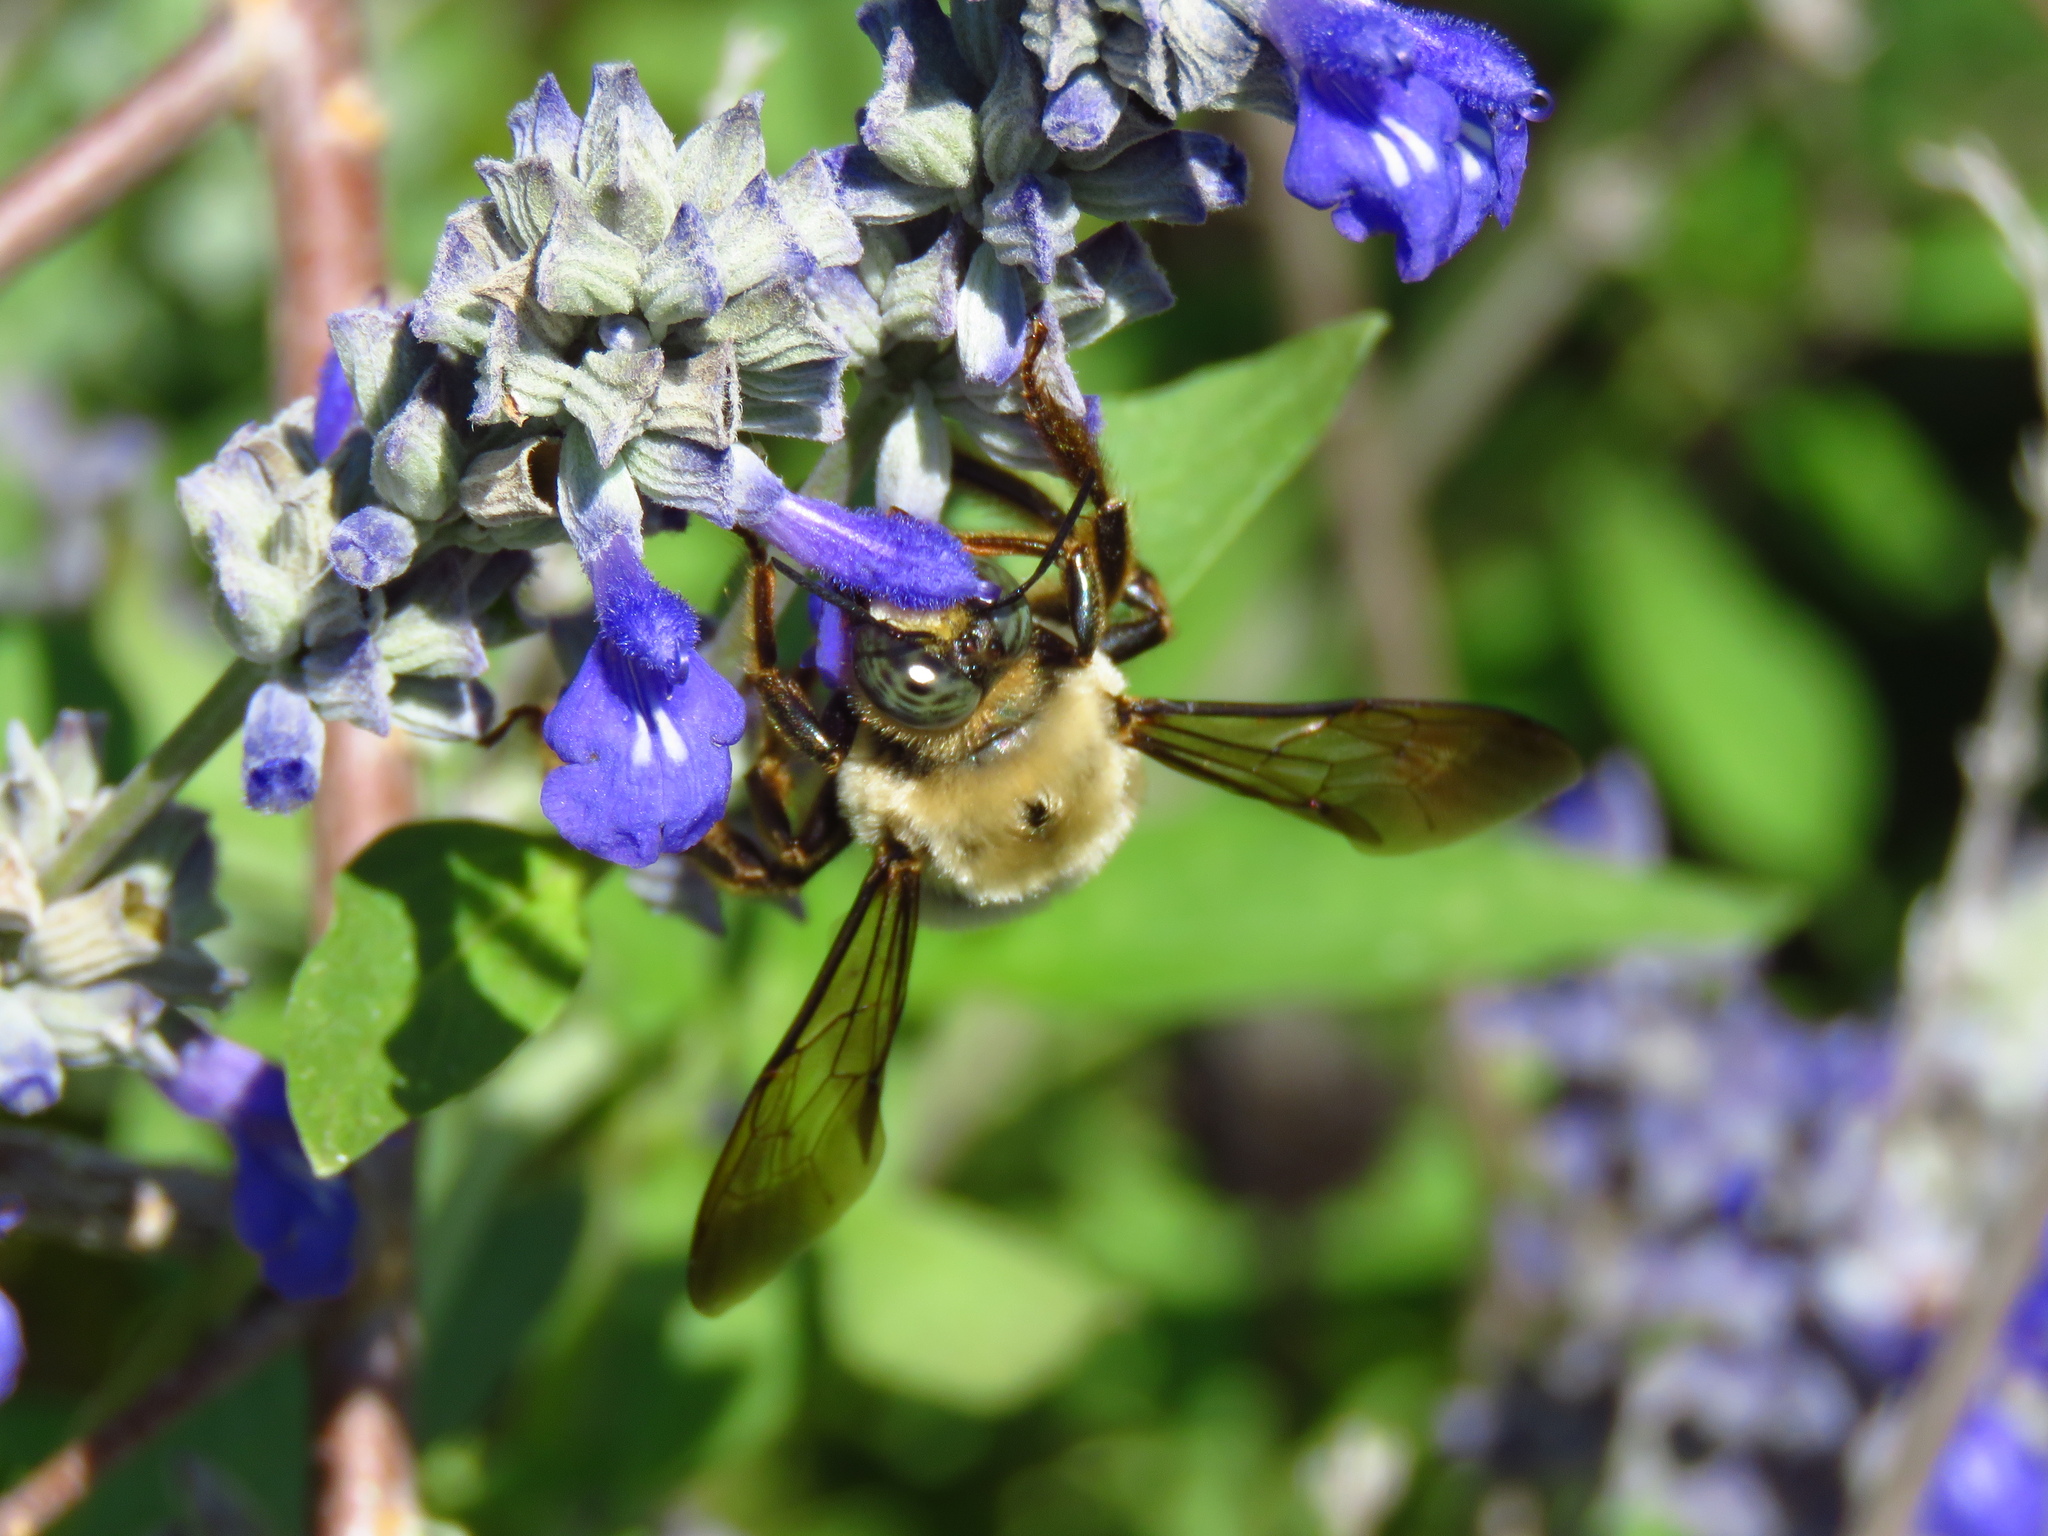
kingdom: Animalia
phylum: Arthropoda
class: Insecta
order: Hymenoptera
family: Apidae
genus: Xylocopa
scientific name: Xylocopa virginica
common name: Carpenter bee
